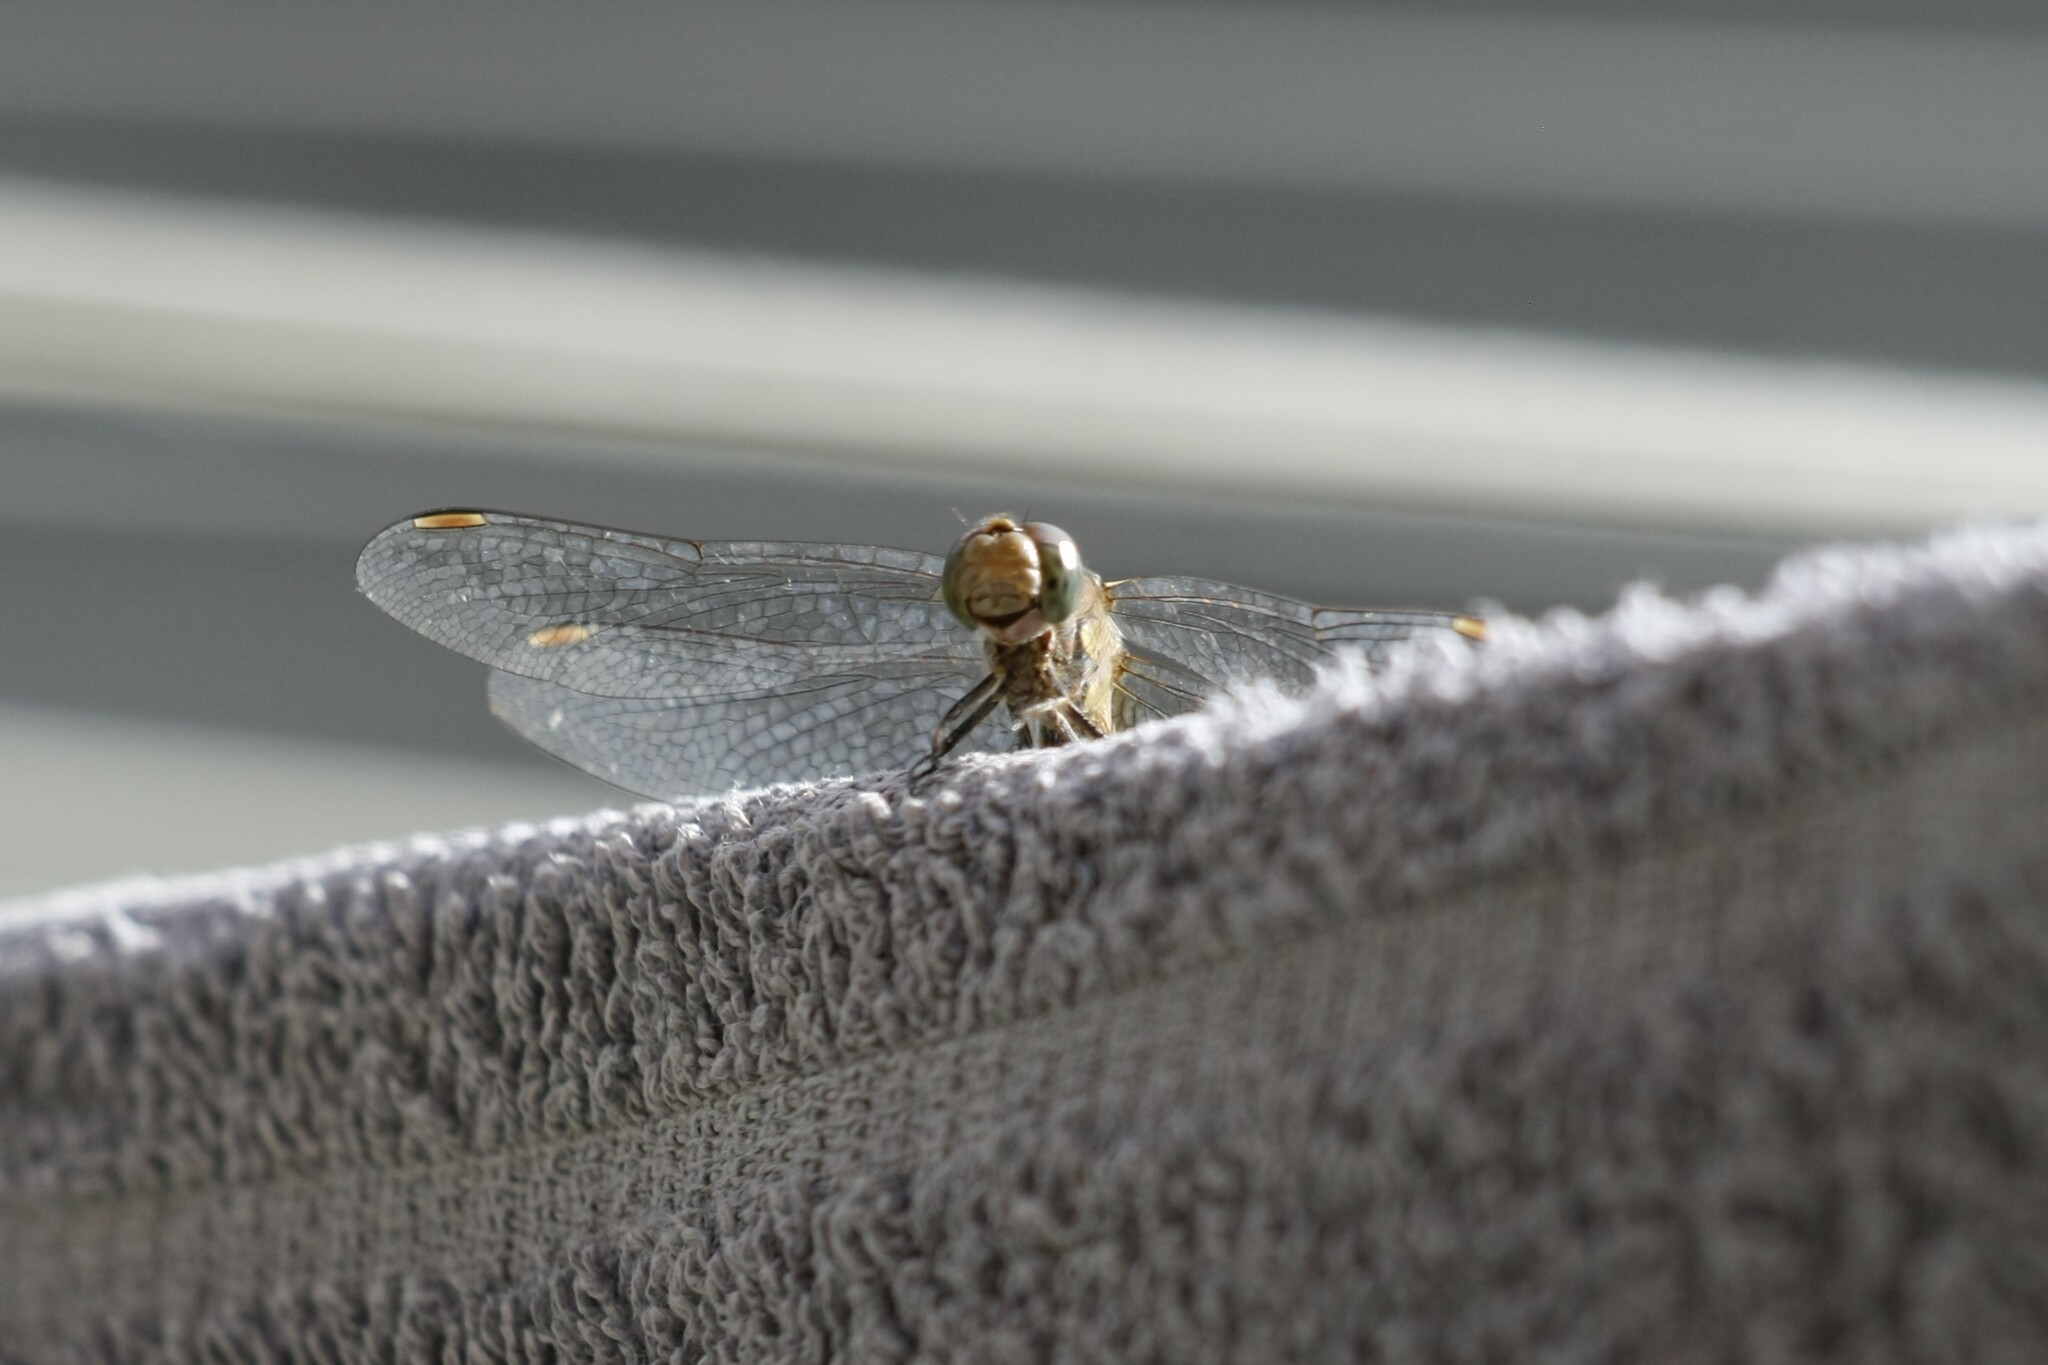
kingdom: Animalia
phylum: Arthropoda
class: Insecta
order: Odonata
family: Libellulidae
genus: Sympetrum
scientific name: Sympetrum striolatum
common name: Common darter
